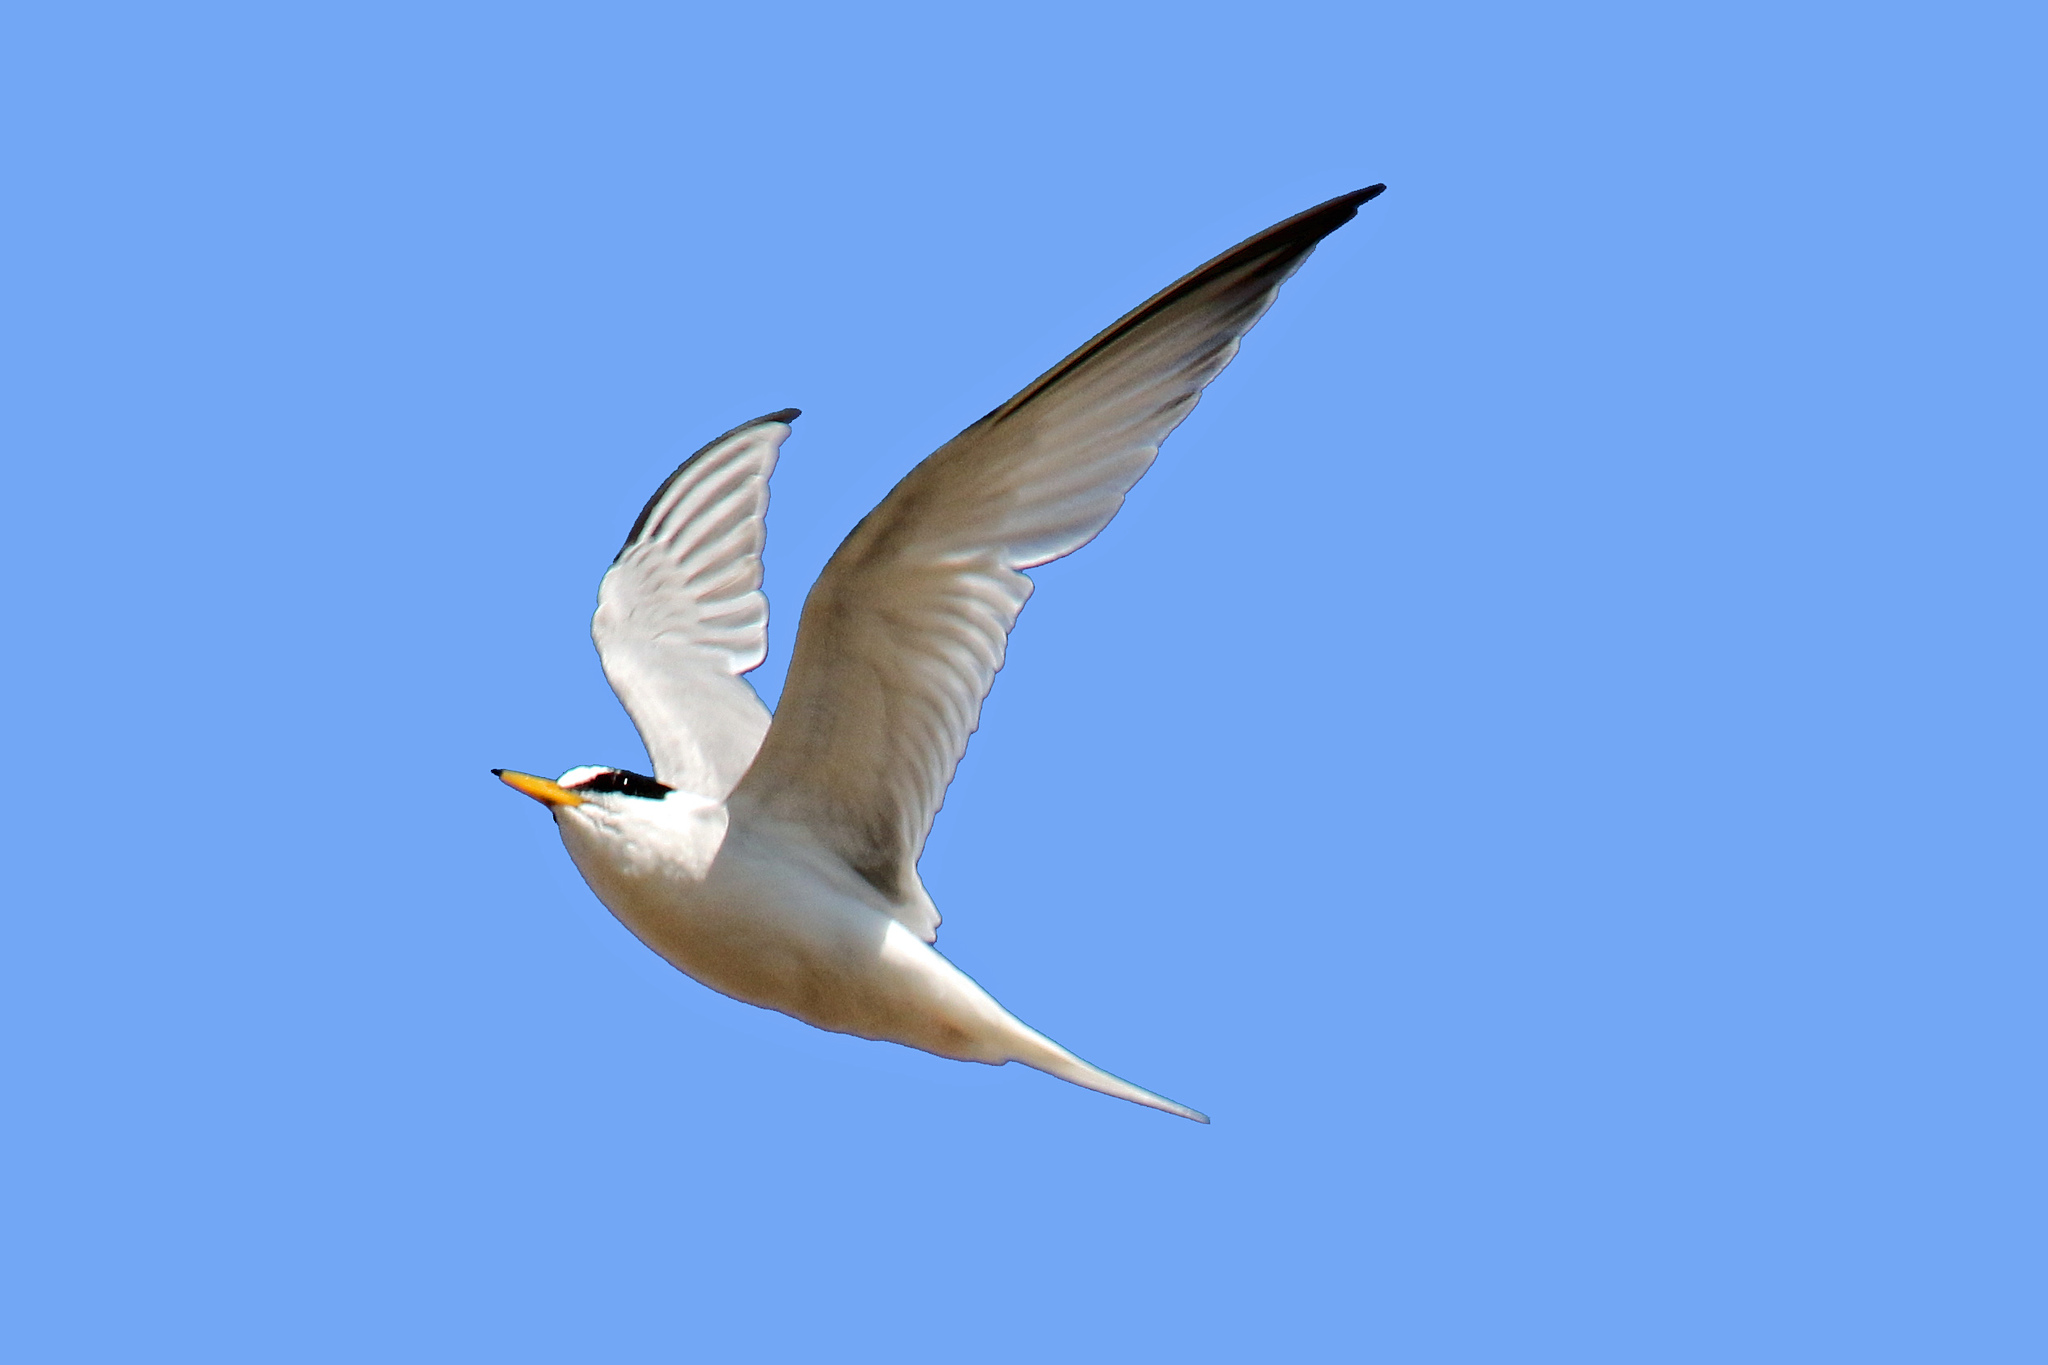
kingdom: Animalia
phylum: Chordata
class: Aves
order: Charadriiformes
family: Laridae
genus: Sternula
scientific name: Sternula albifrons
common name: Little tern
